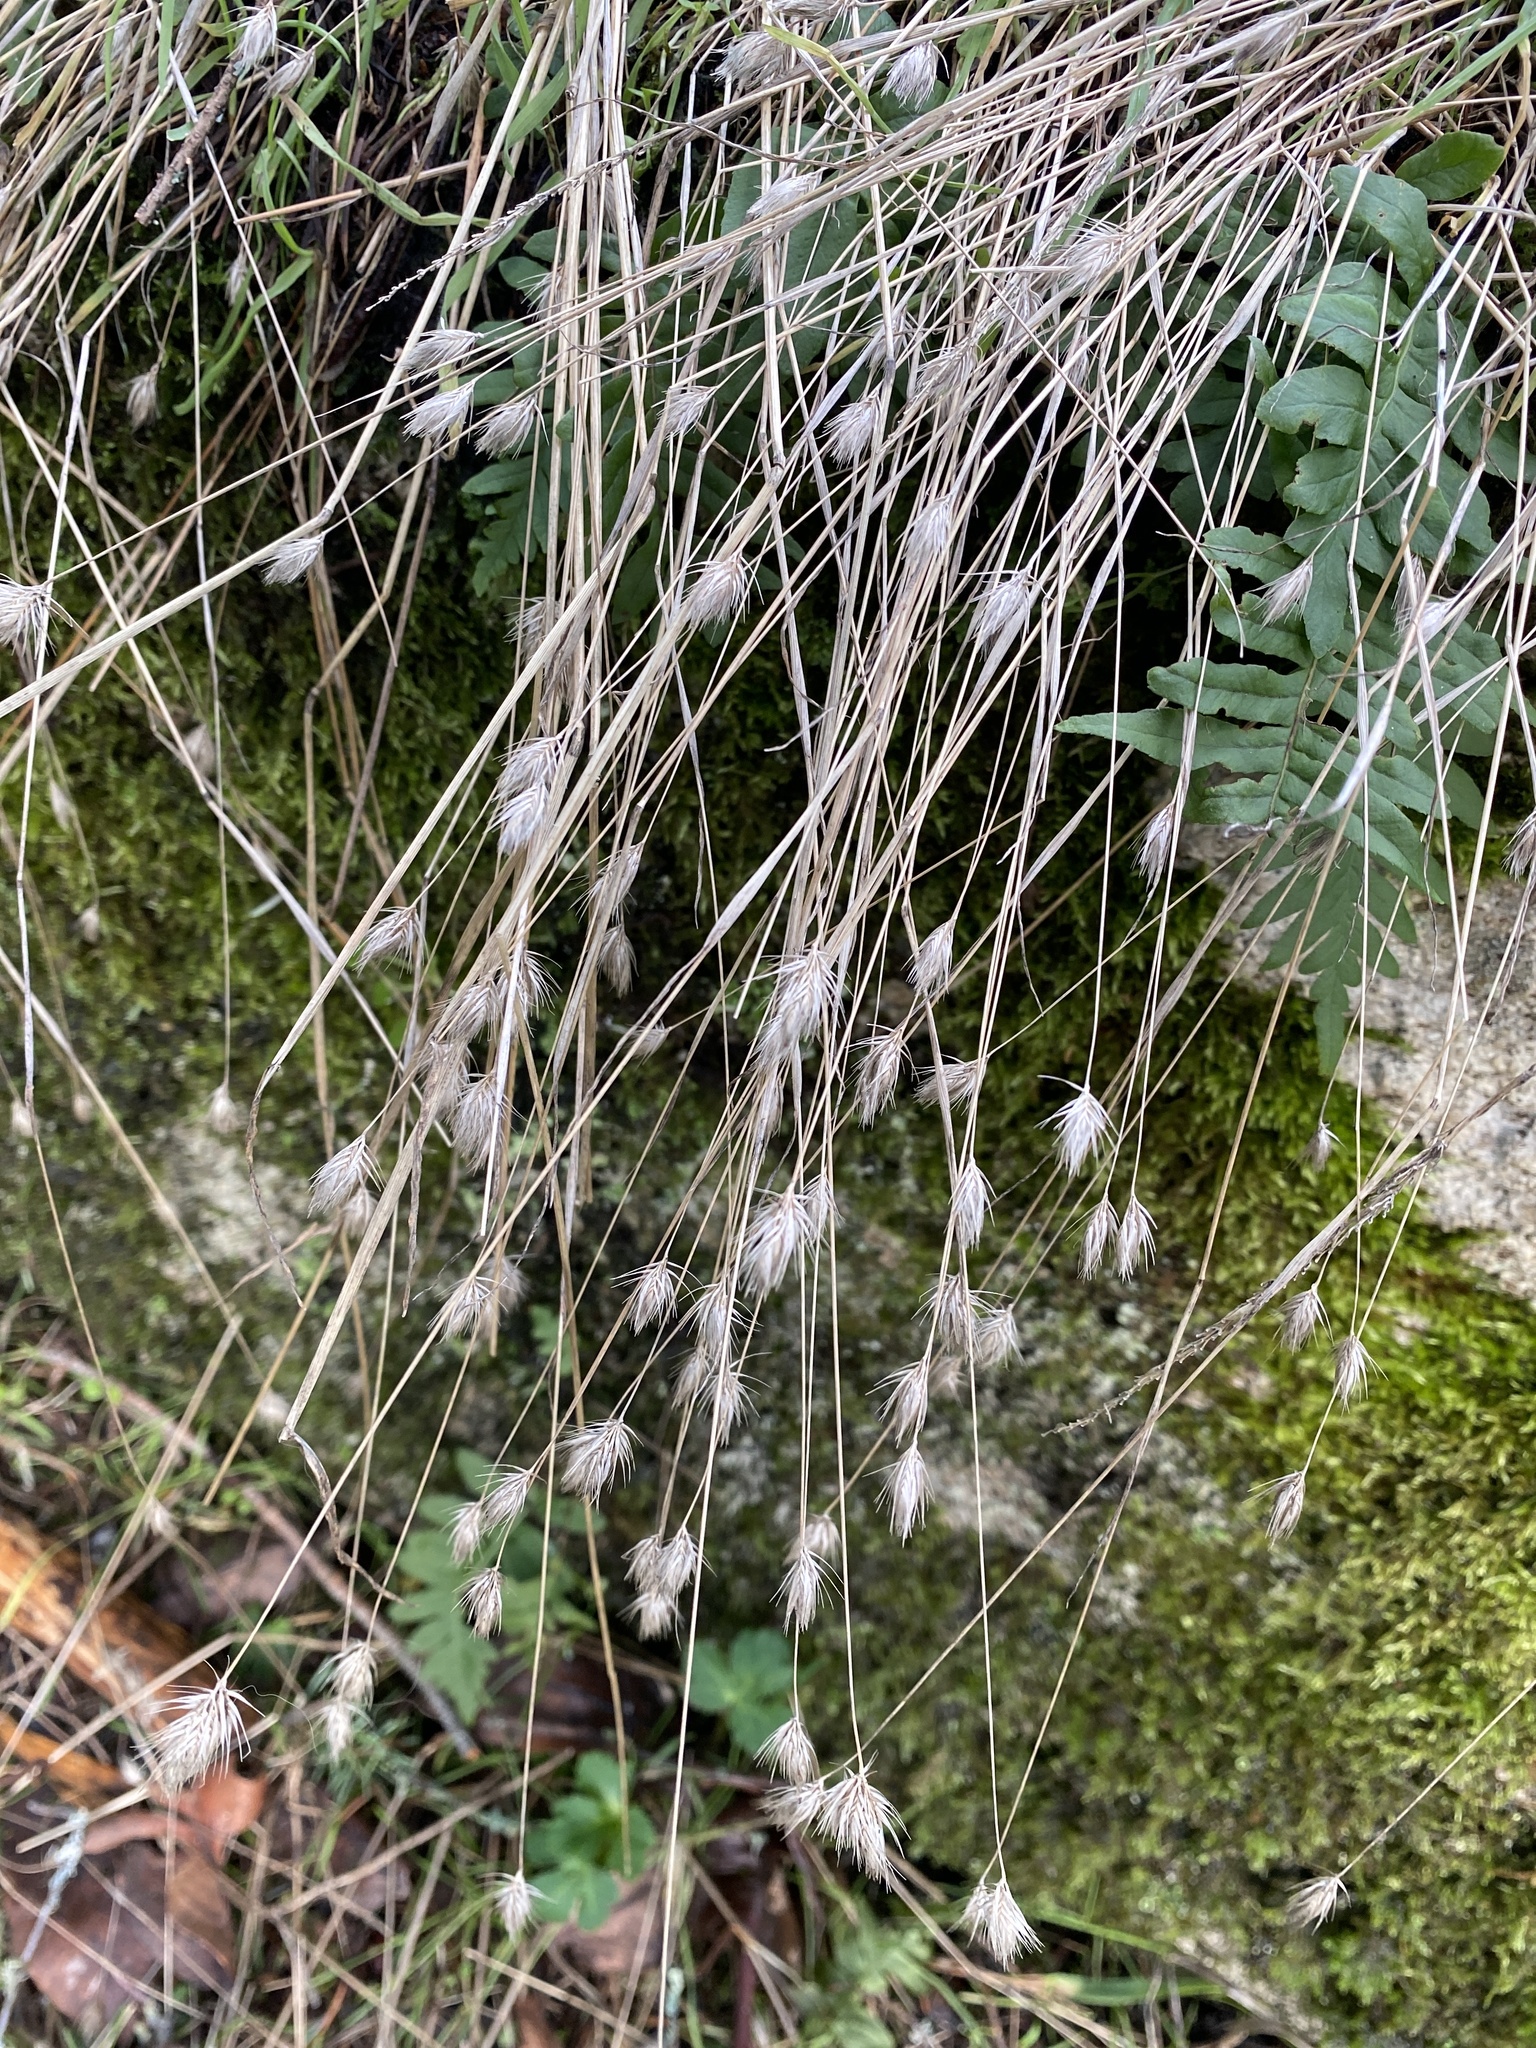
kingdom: Plantae
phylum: Tracheophyta
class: Liliopsida
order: Poales
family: Poaceae
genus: Cynosurus
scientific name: Cynosurus echinatus
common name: Rough dog's-tail
